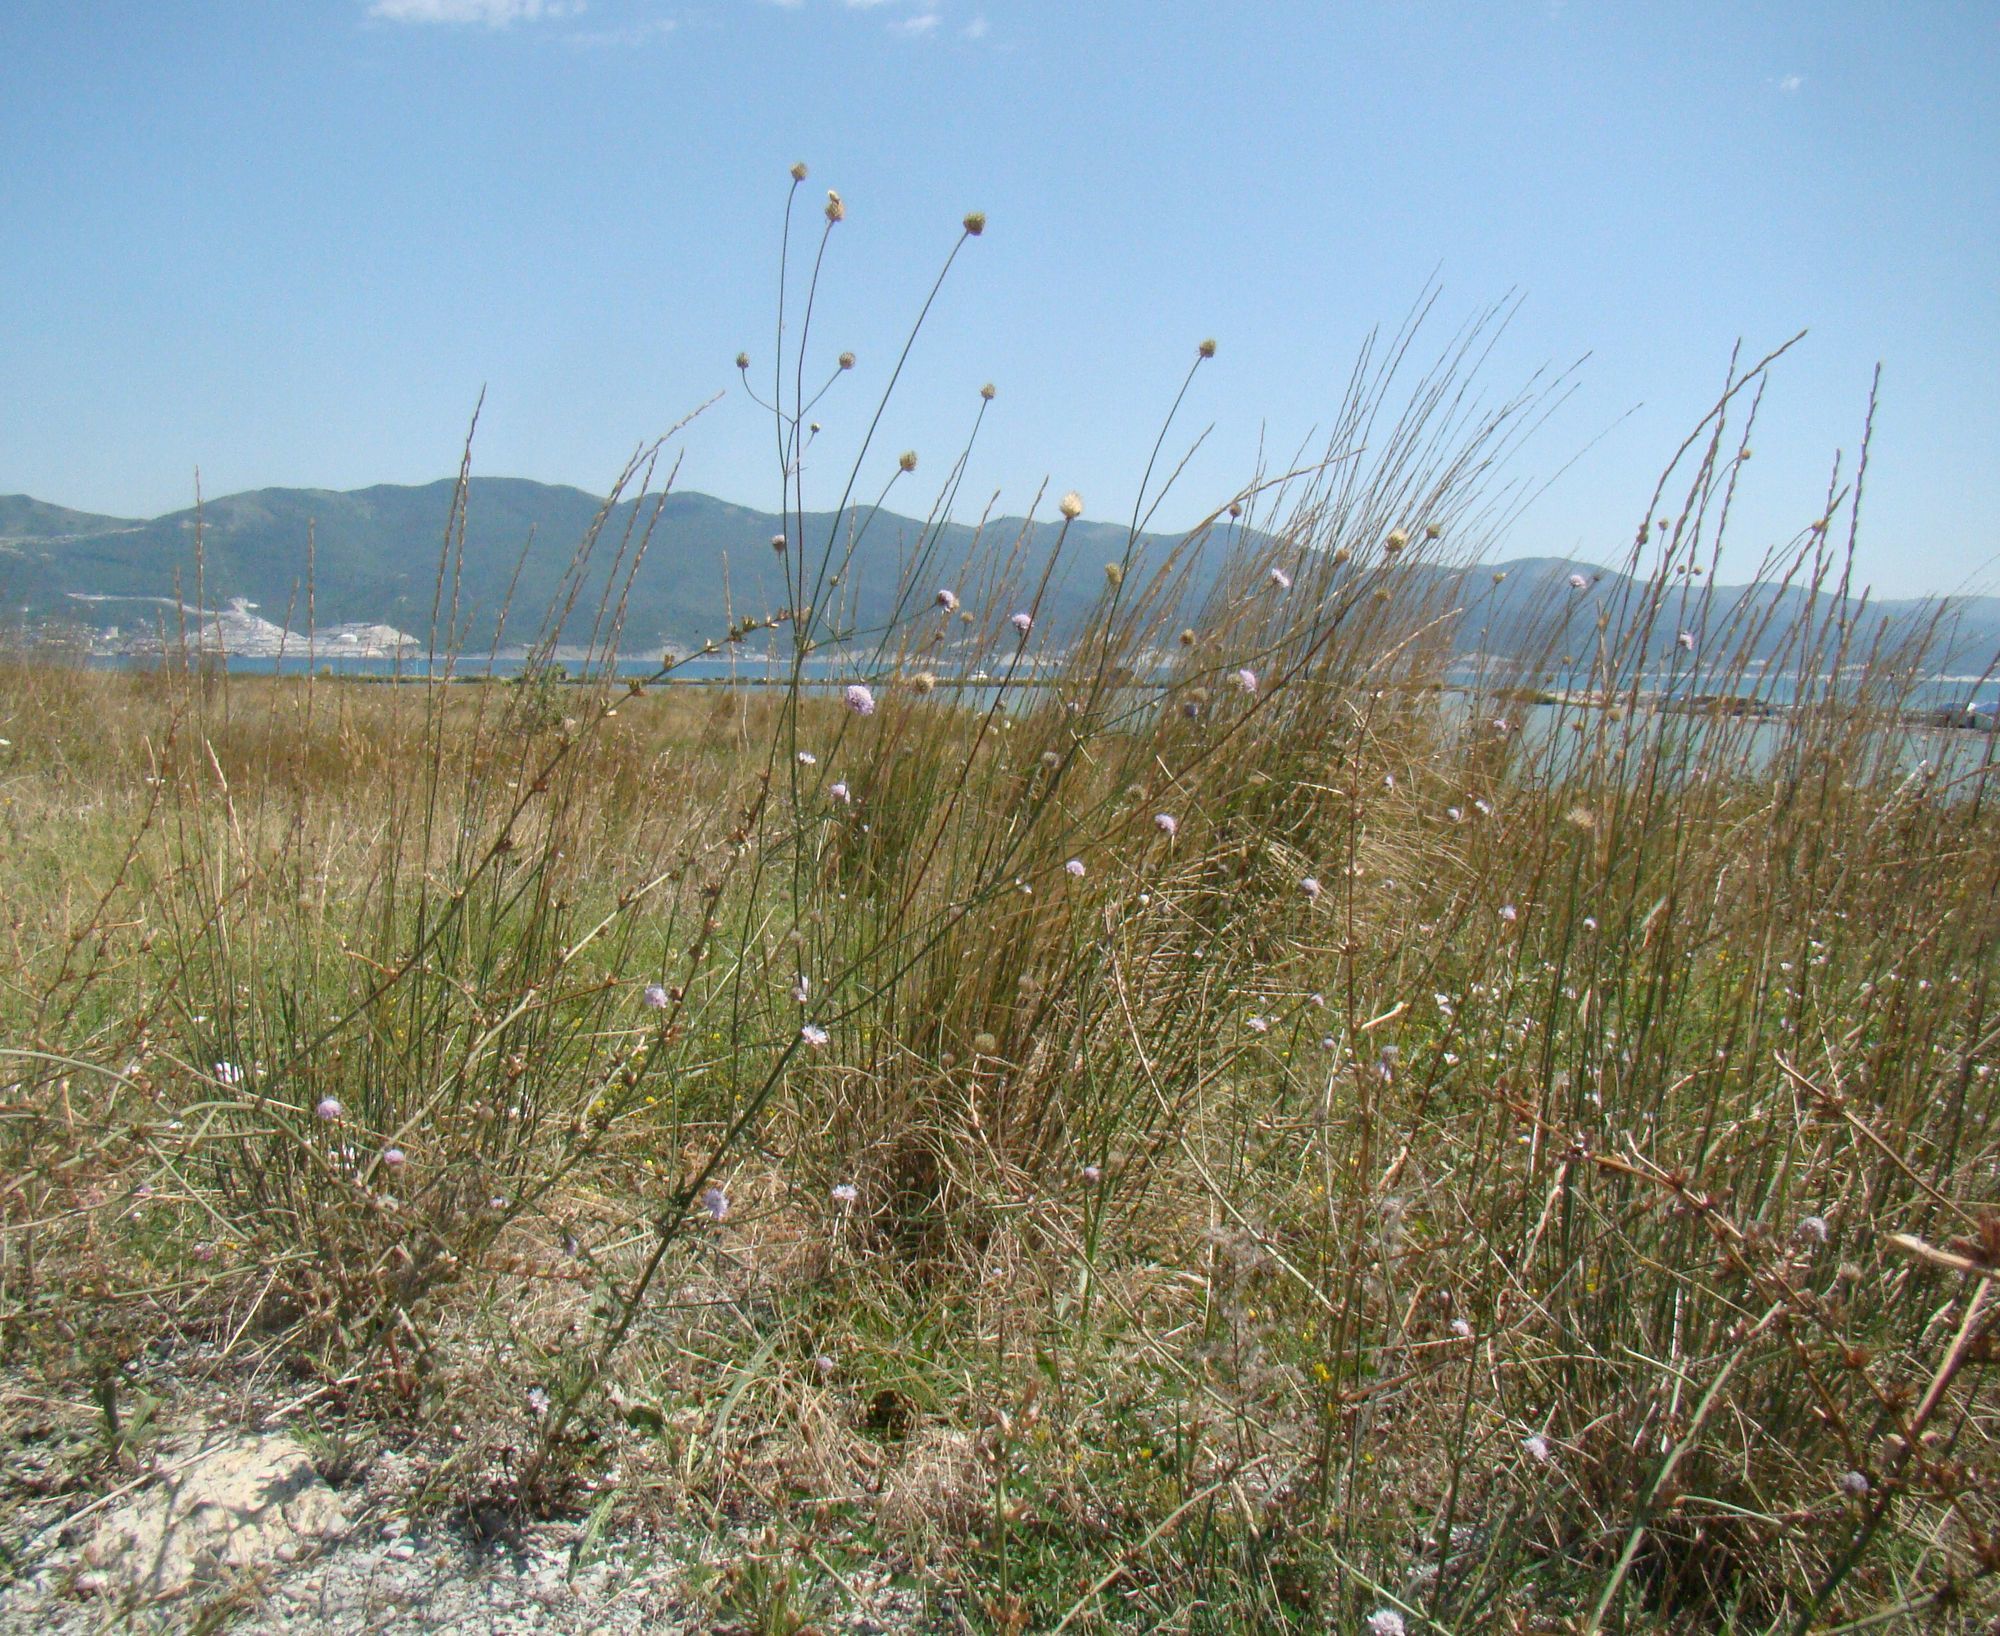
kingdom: Plantae
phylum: Tracheophyta
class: Magnoliopsida
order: Dipsacales
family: Caprifoliaceae
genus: Cephalaria
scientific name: Cephalaria transsylvanica
